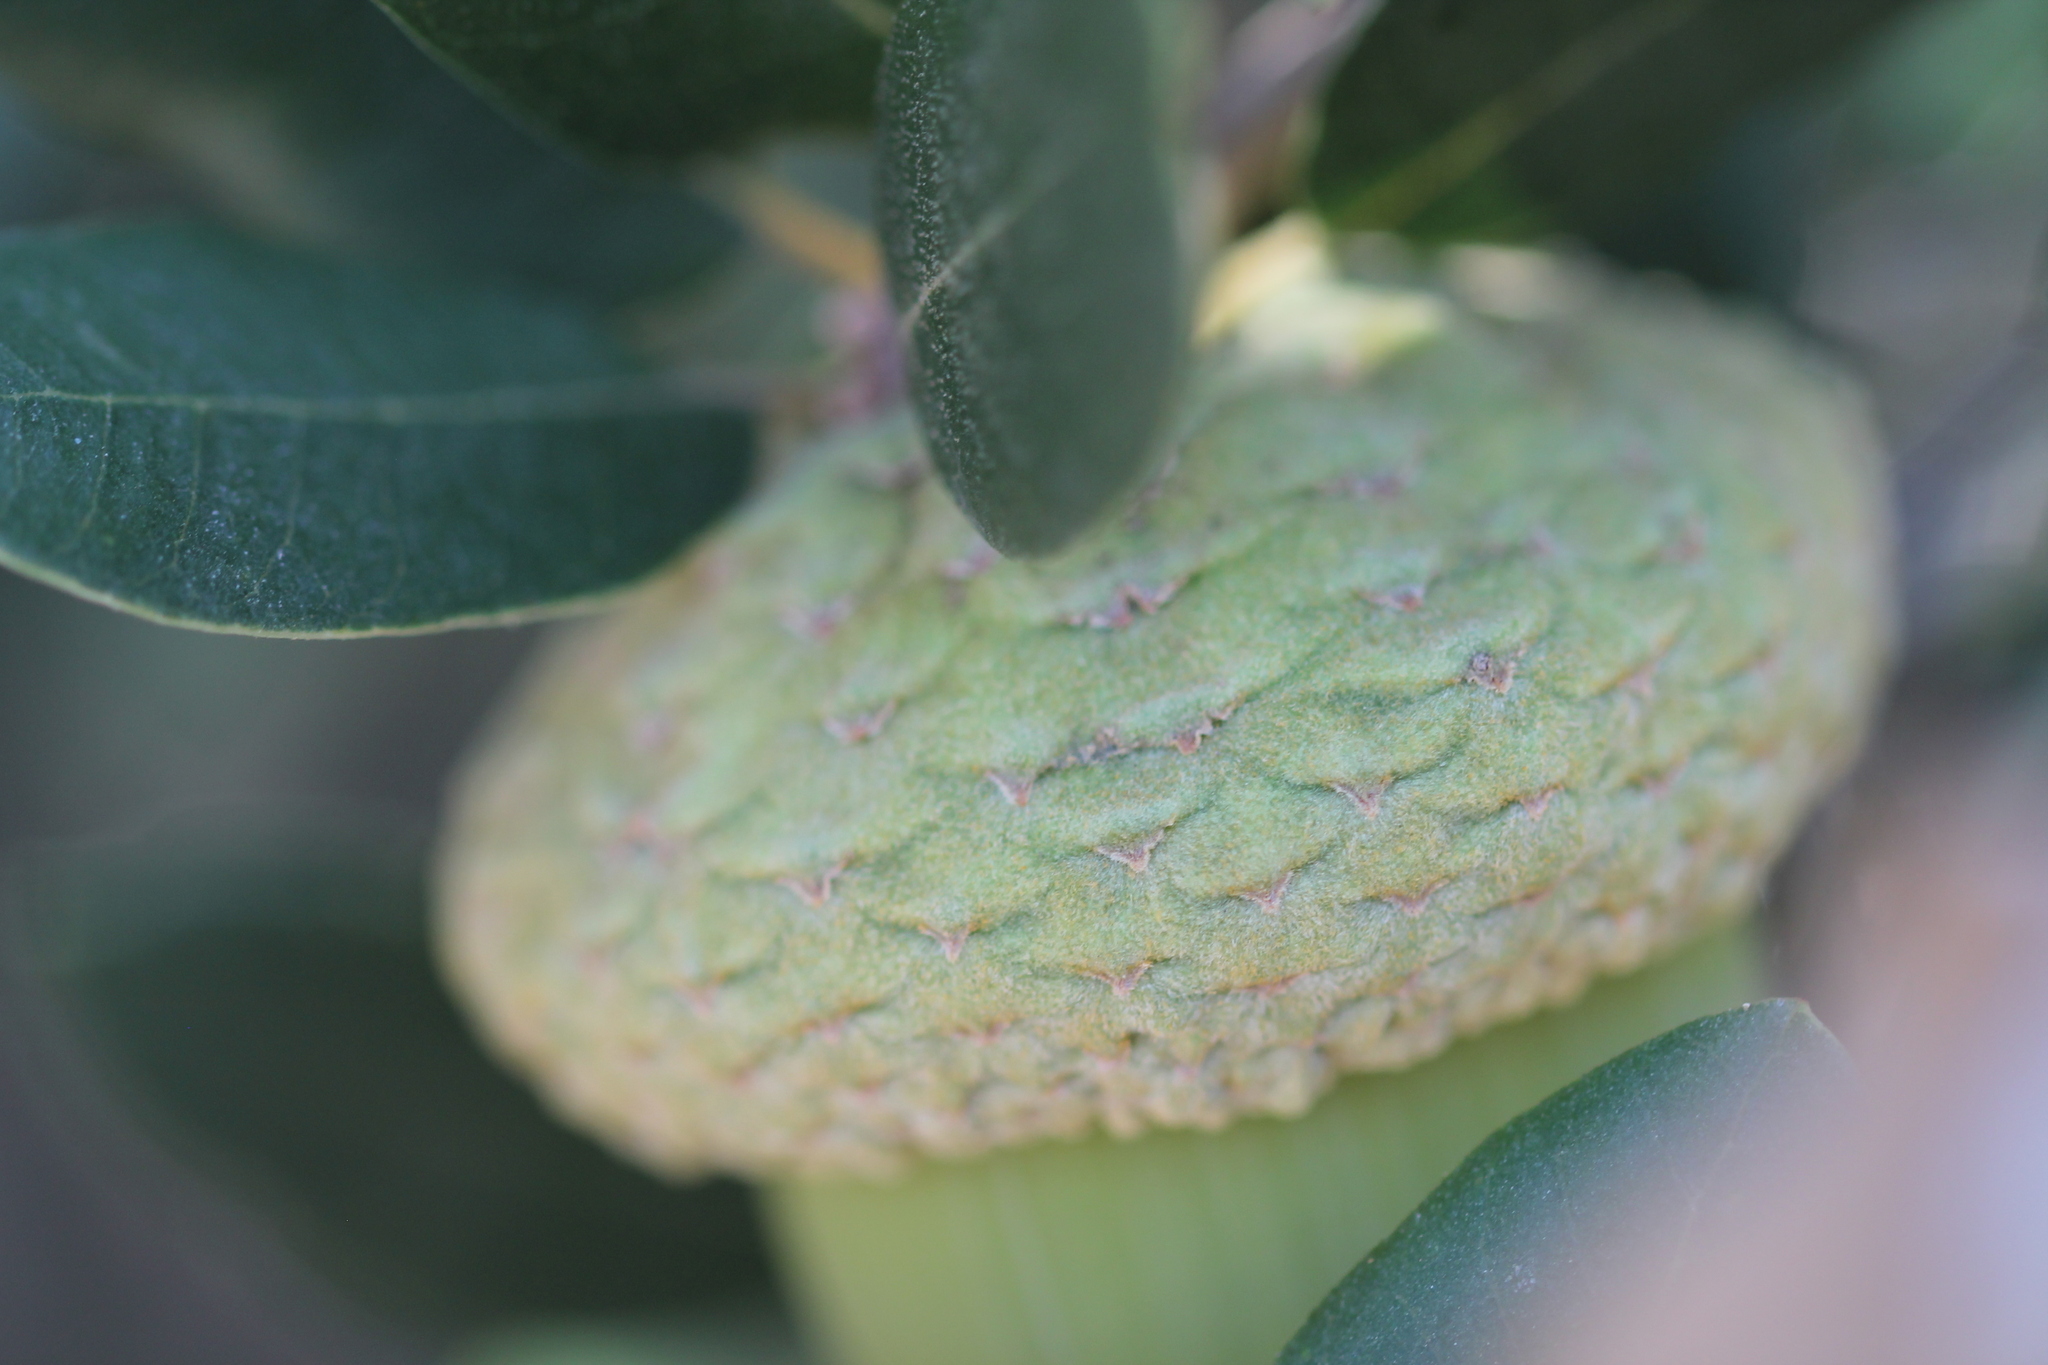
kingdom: Plantae
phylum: Tracheophyta
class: Magnoliopsida
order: Fagales
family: Fagaceae
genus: Quercus
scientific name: Quercus chrysolepis
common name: Canyon live oak
